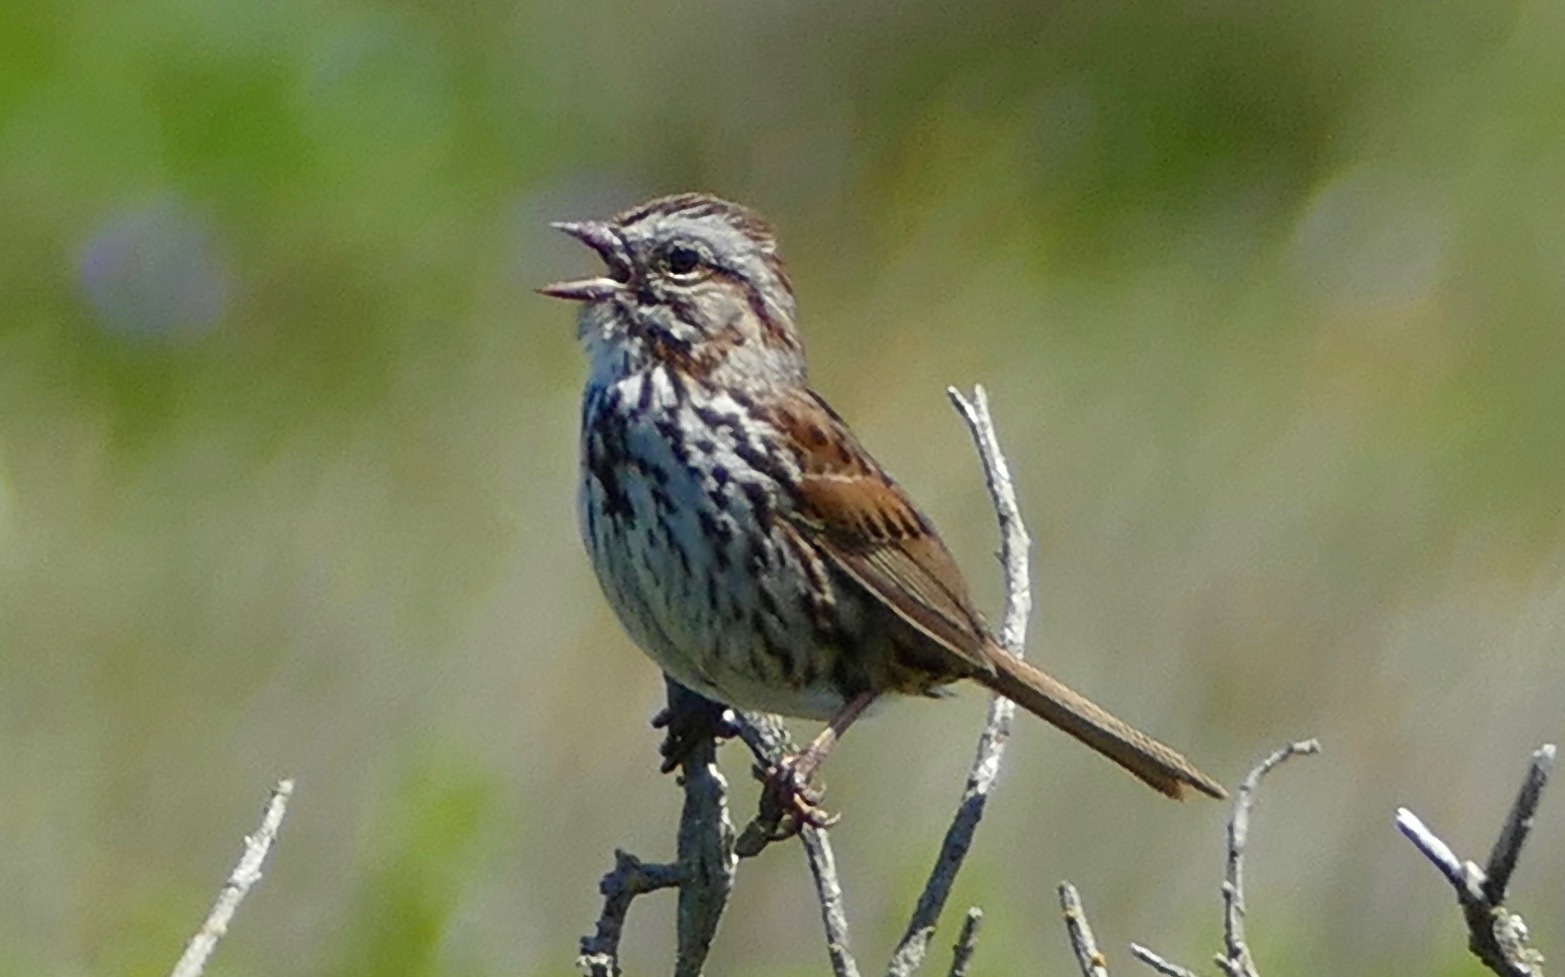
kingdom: Animalia
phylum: Chordata
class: Aves
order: Passeriformes
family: Passerellidae
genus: Melospiza
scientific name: Melospiza melodia
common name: Song sparrow
